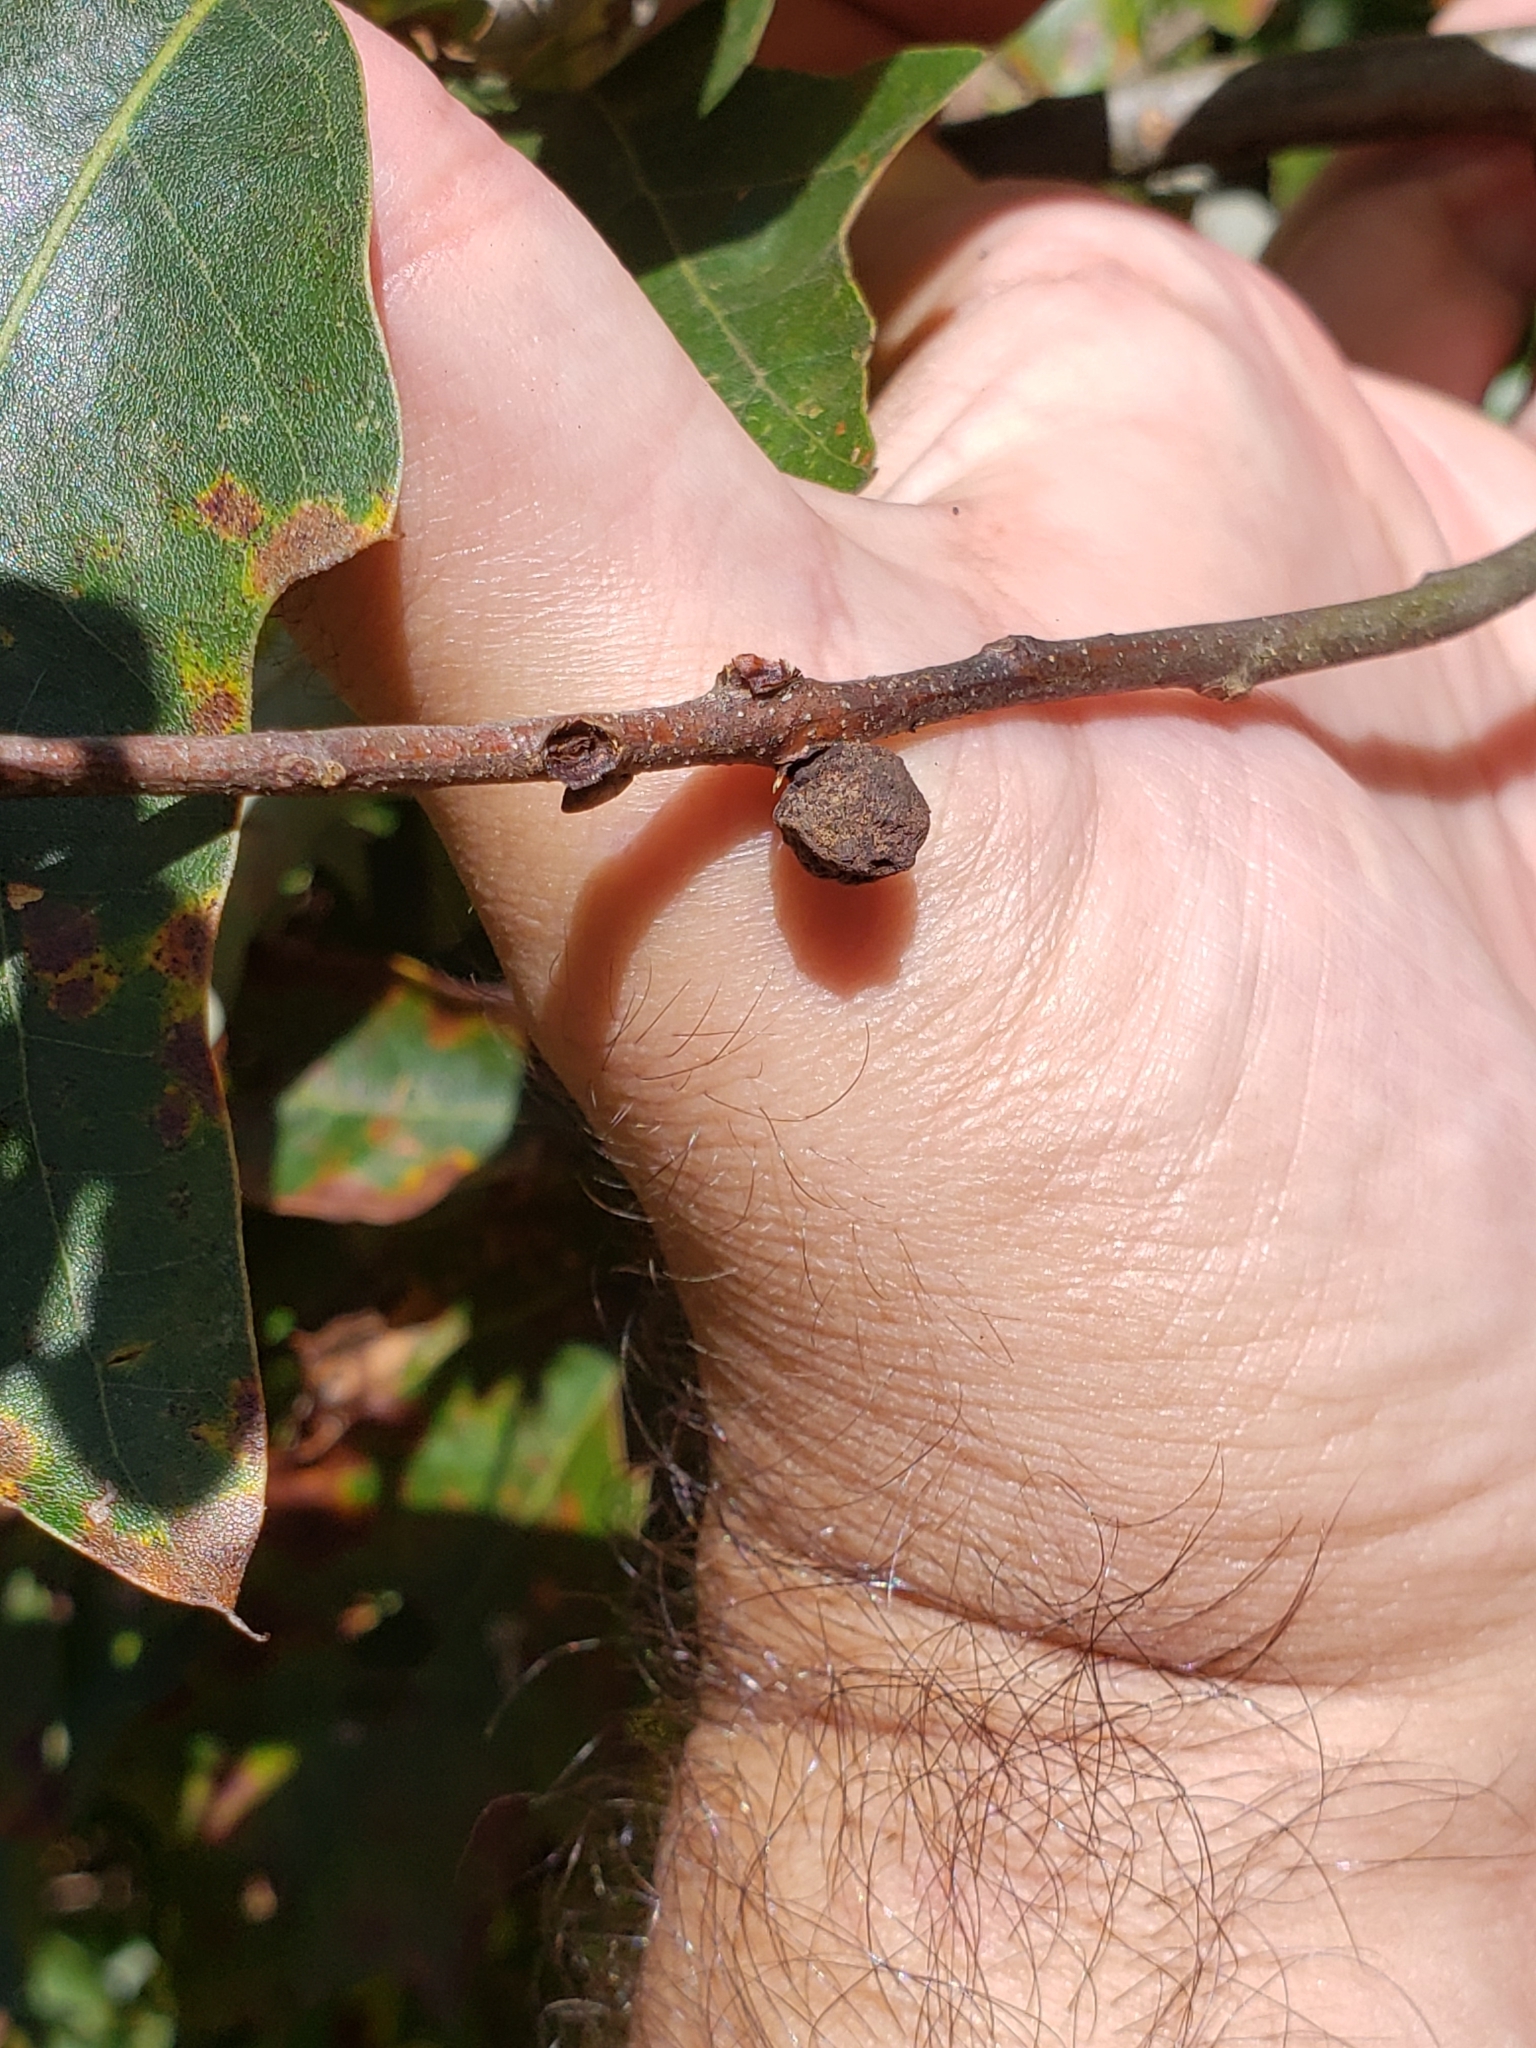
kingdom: Animalia
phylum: Arthropoda
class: Insecta
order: Hymenoptera
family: Cynipidae
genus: Callirhytis
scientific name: Callirhytis
